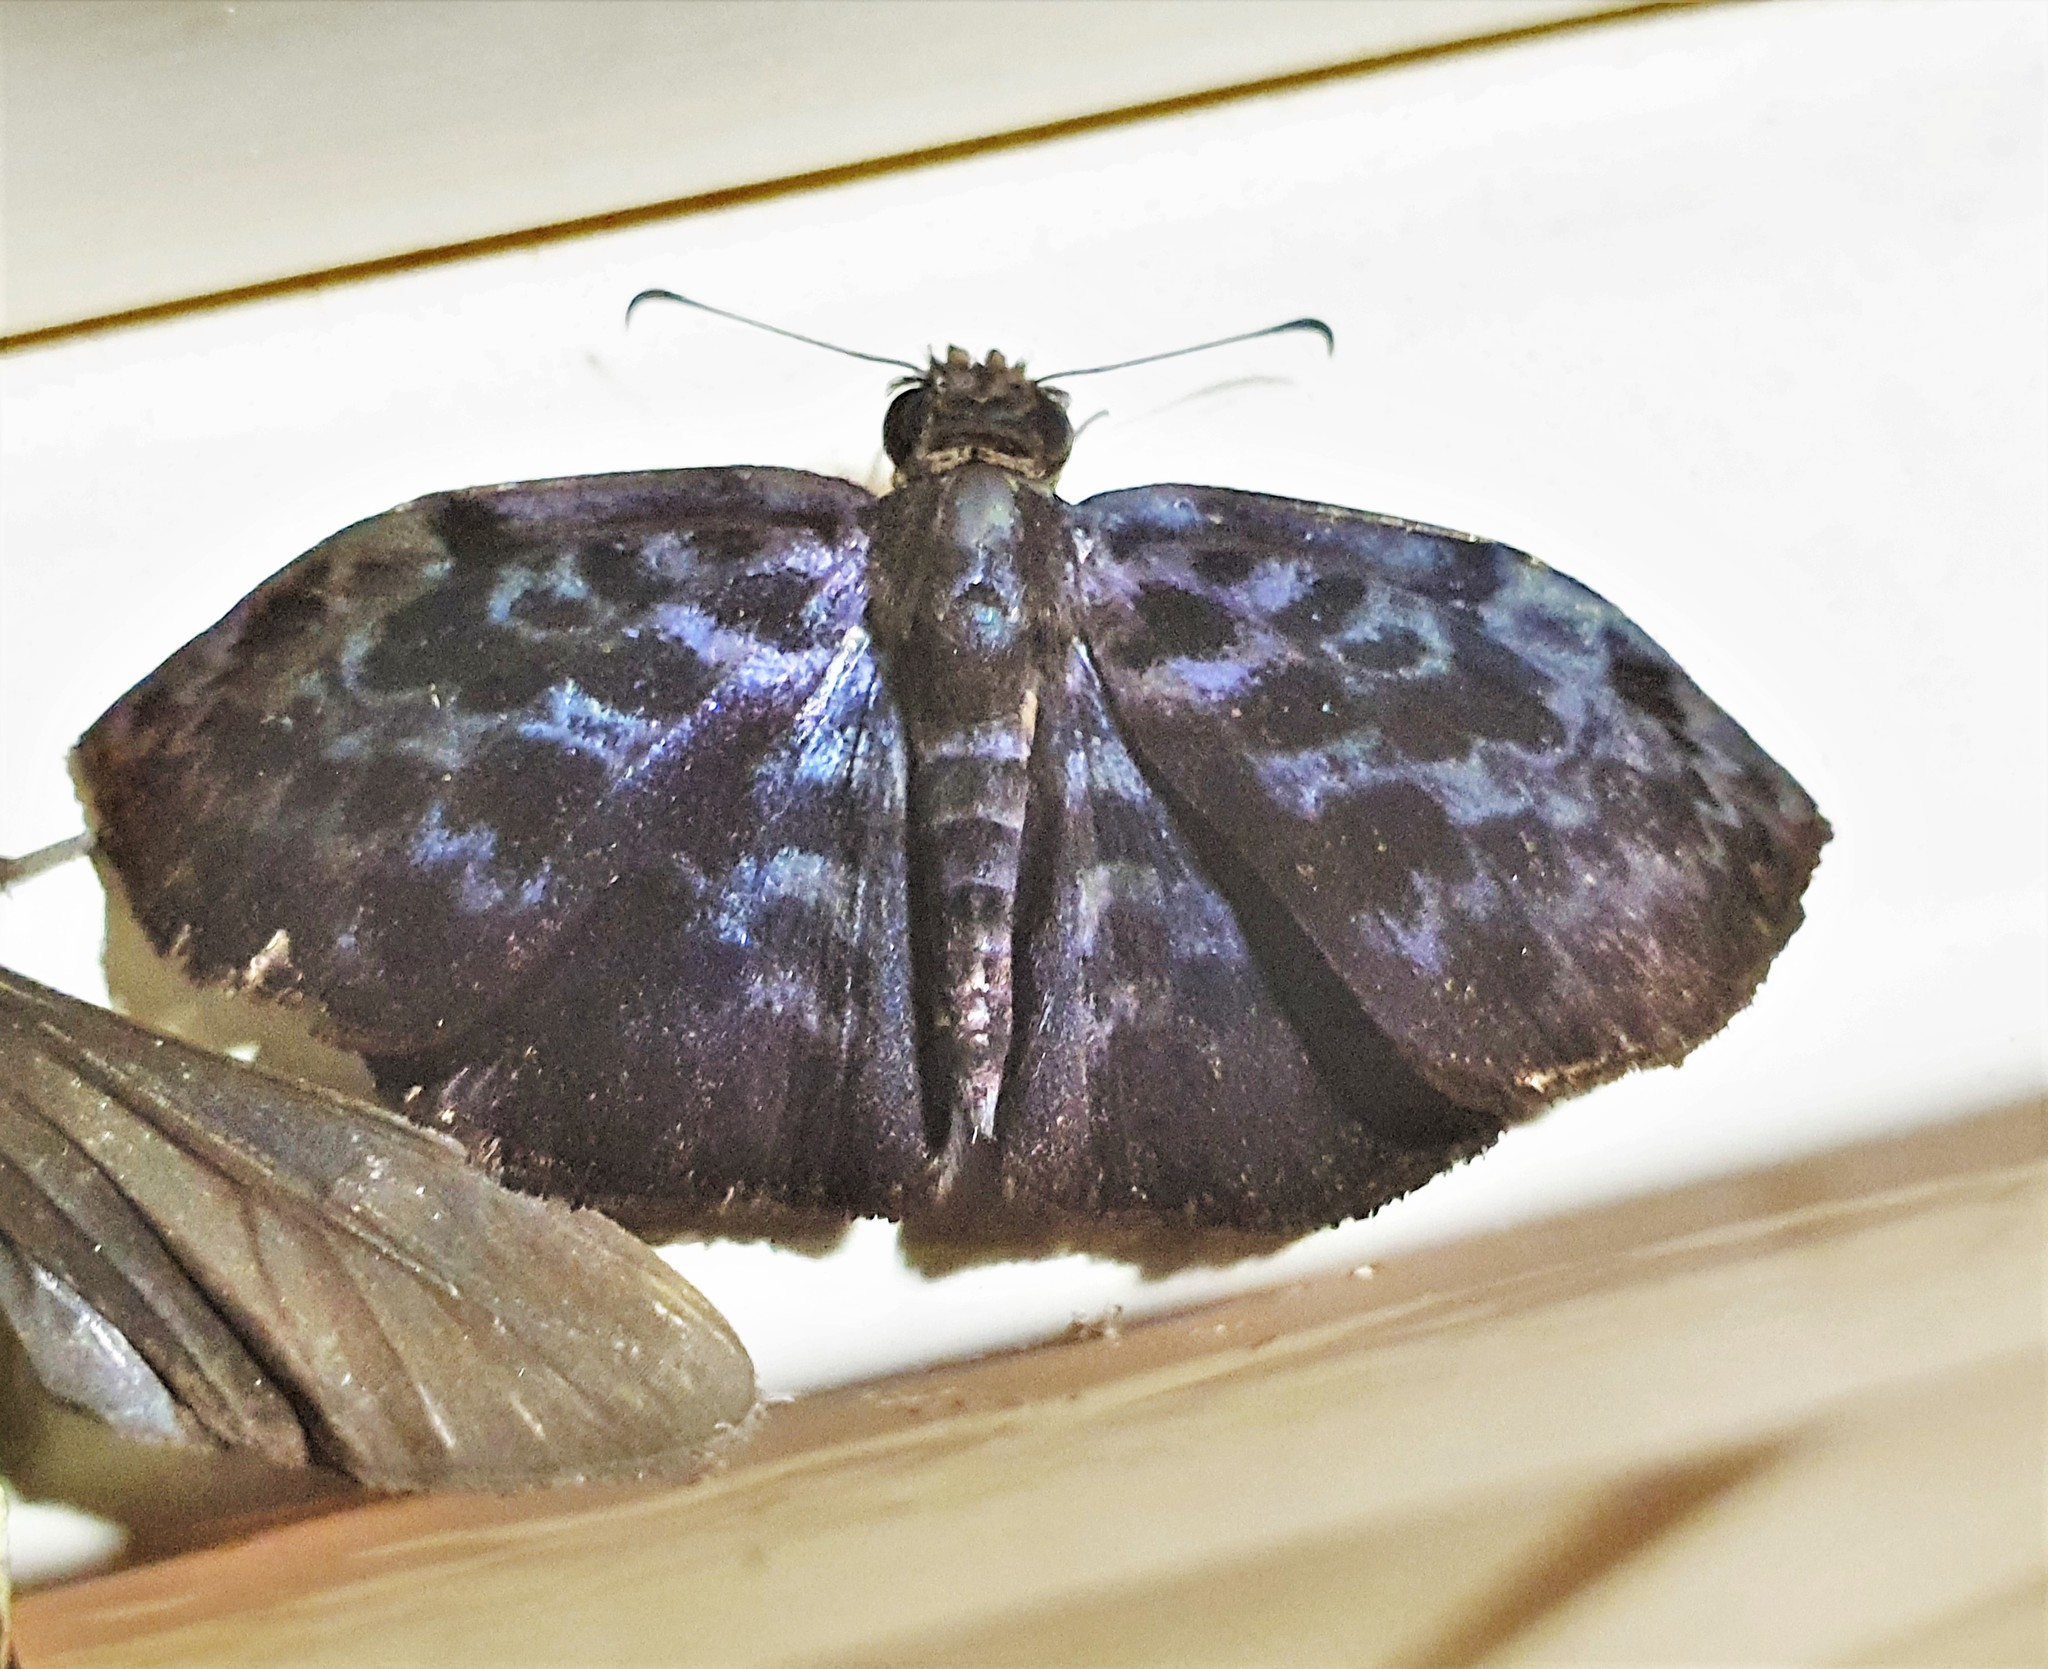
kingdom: Animalia
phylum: Arthropoda
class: Insecta
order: Lepidoptera
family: Hesperiidae
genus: Cycloglypha
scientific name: Cycloglypha tisias
